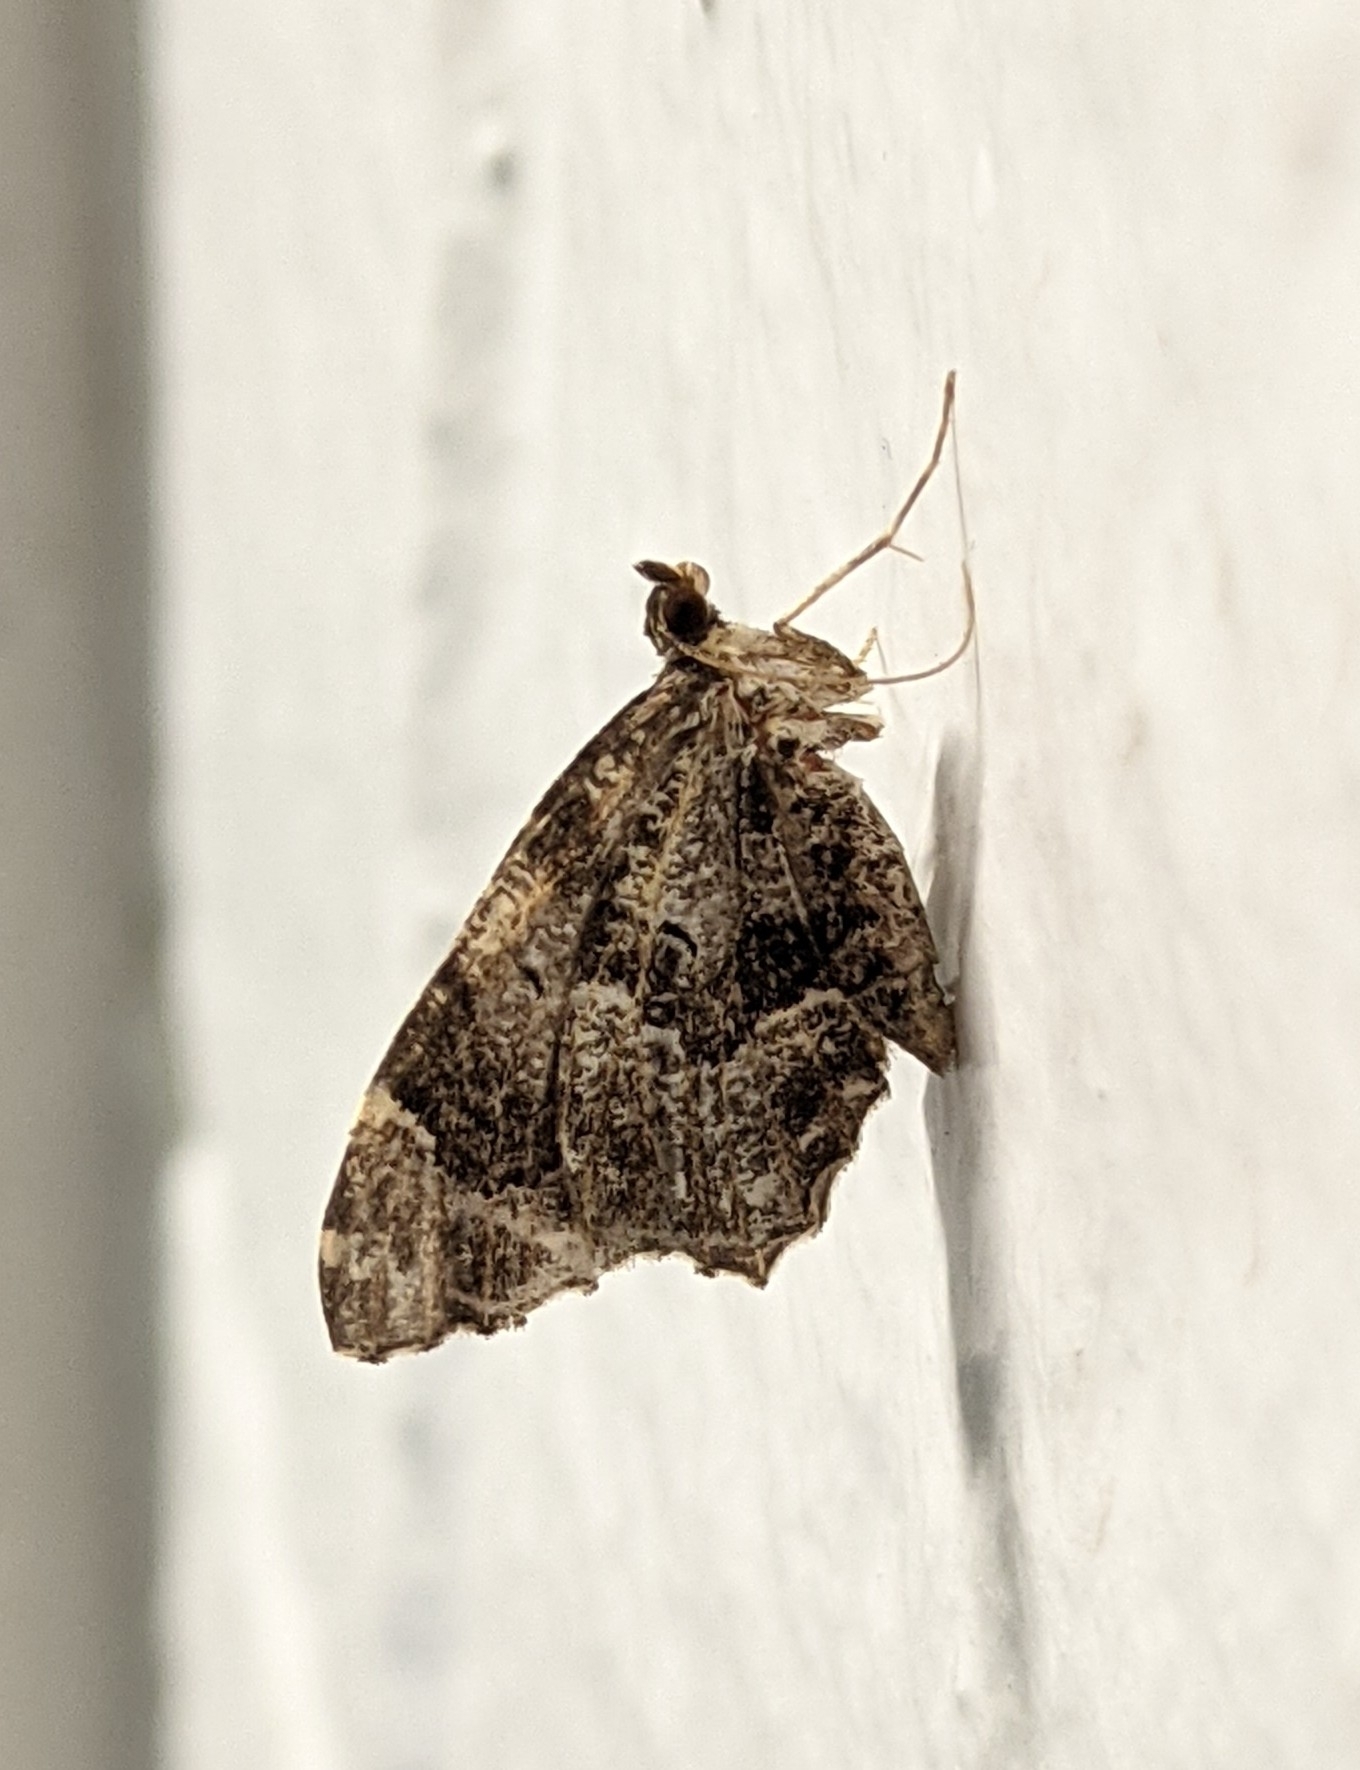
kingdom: Animalia
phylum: Arthropoda
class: Insecta
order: Lepidoptera
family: Geometridae
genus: Ceratodalia
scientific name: Ceratodalia gueneata
